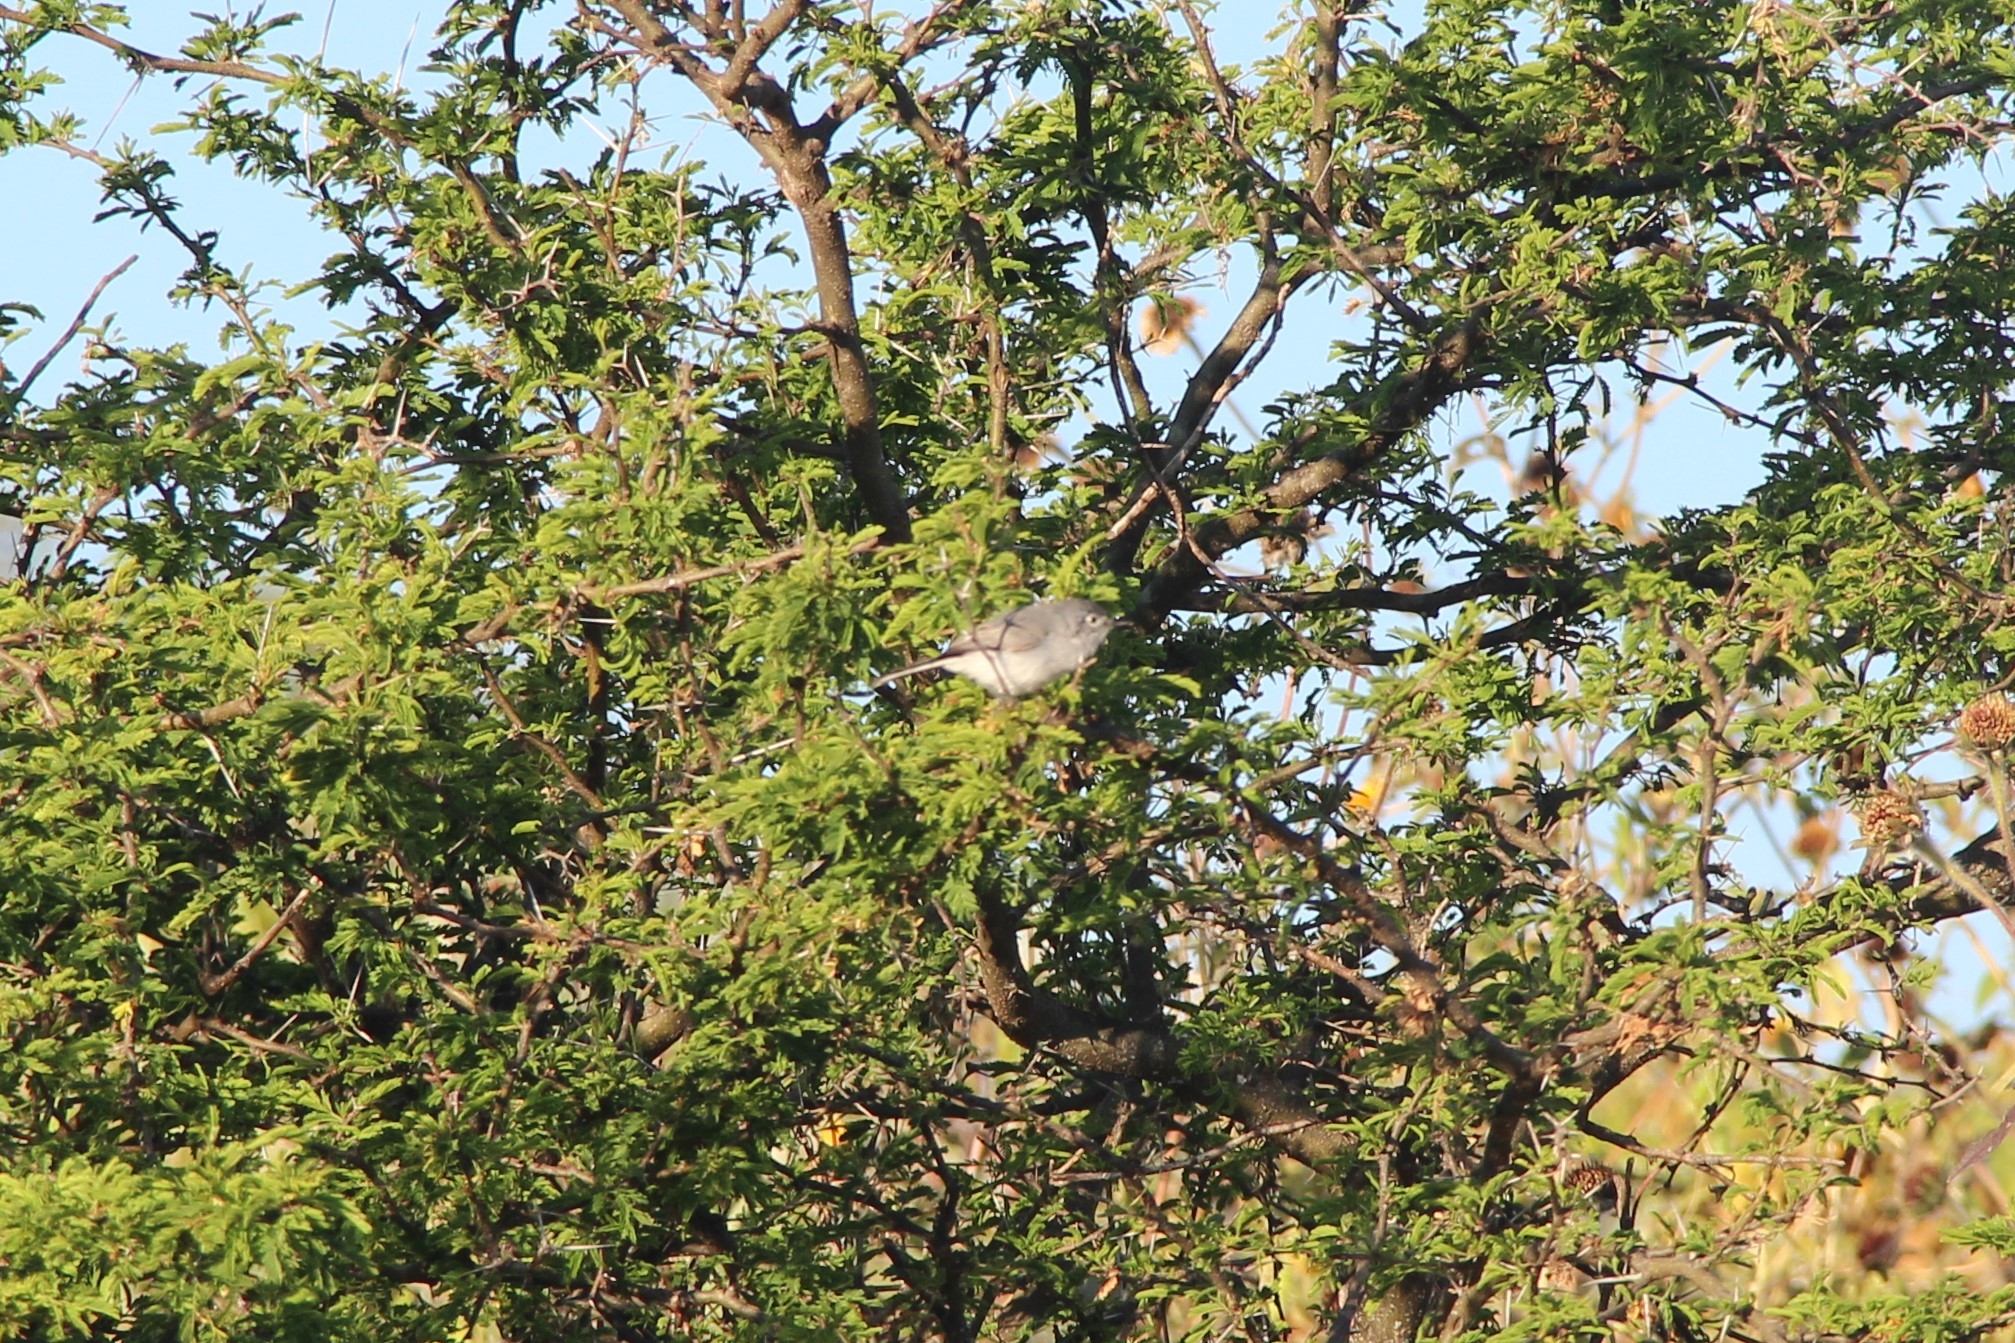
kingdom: Animalia
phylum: Chordata
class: Aves
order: Passeriformes
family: Polioptilidae
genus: Polioptila
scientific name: Polioptila caerulea
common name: Blue-gray gnatcatcher
